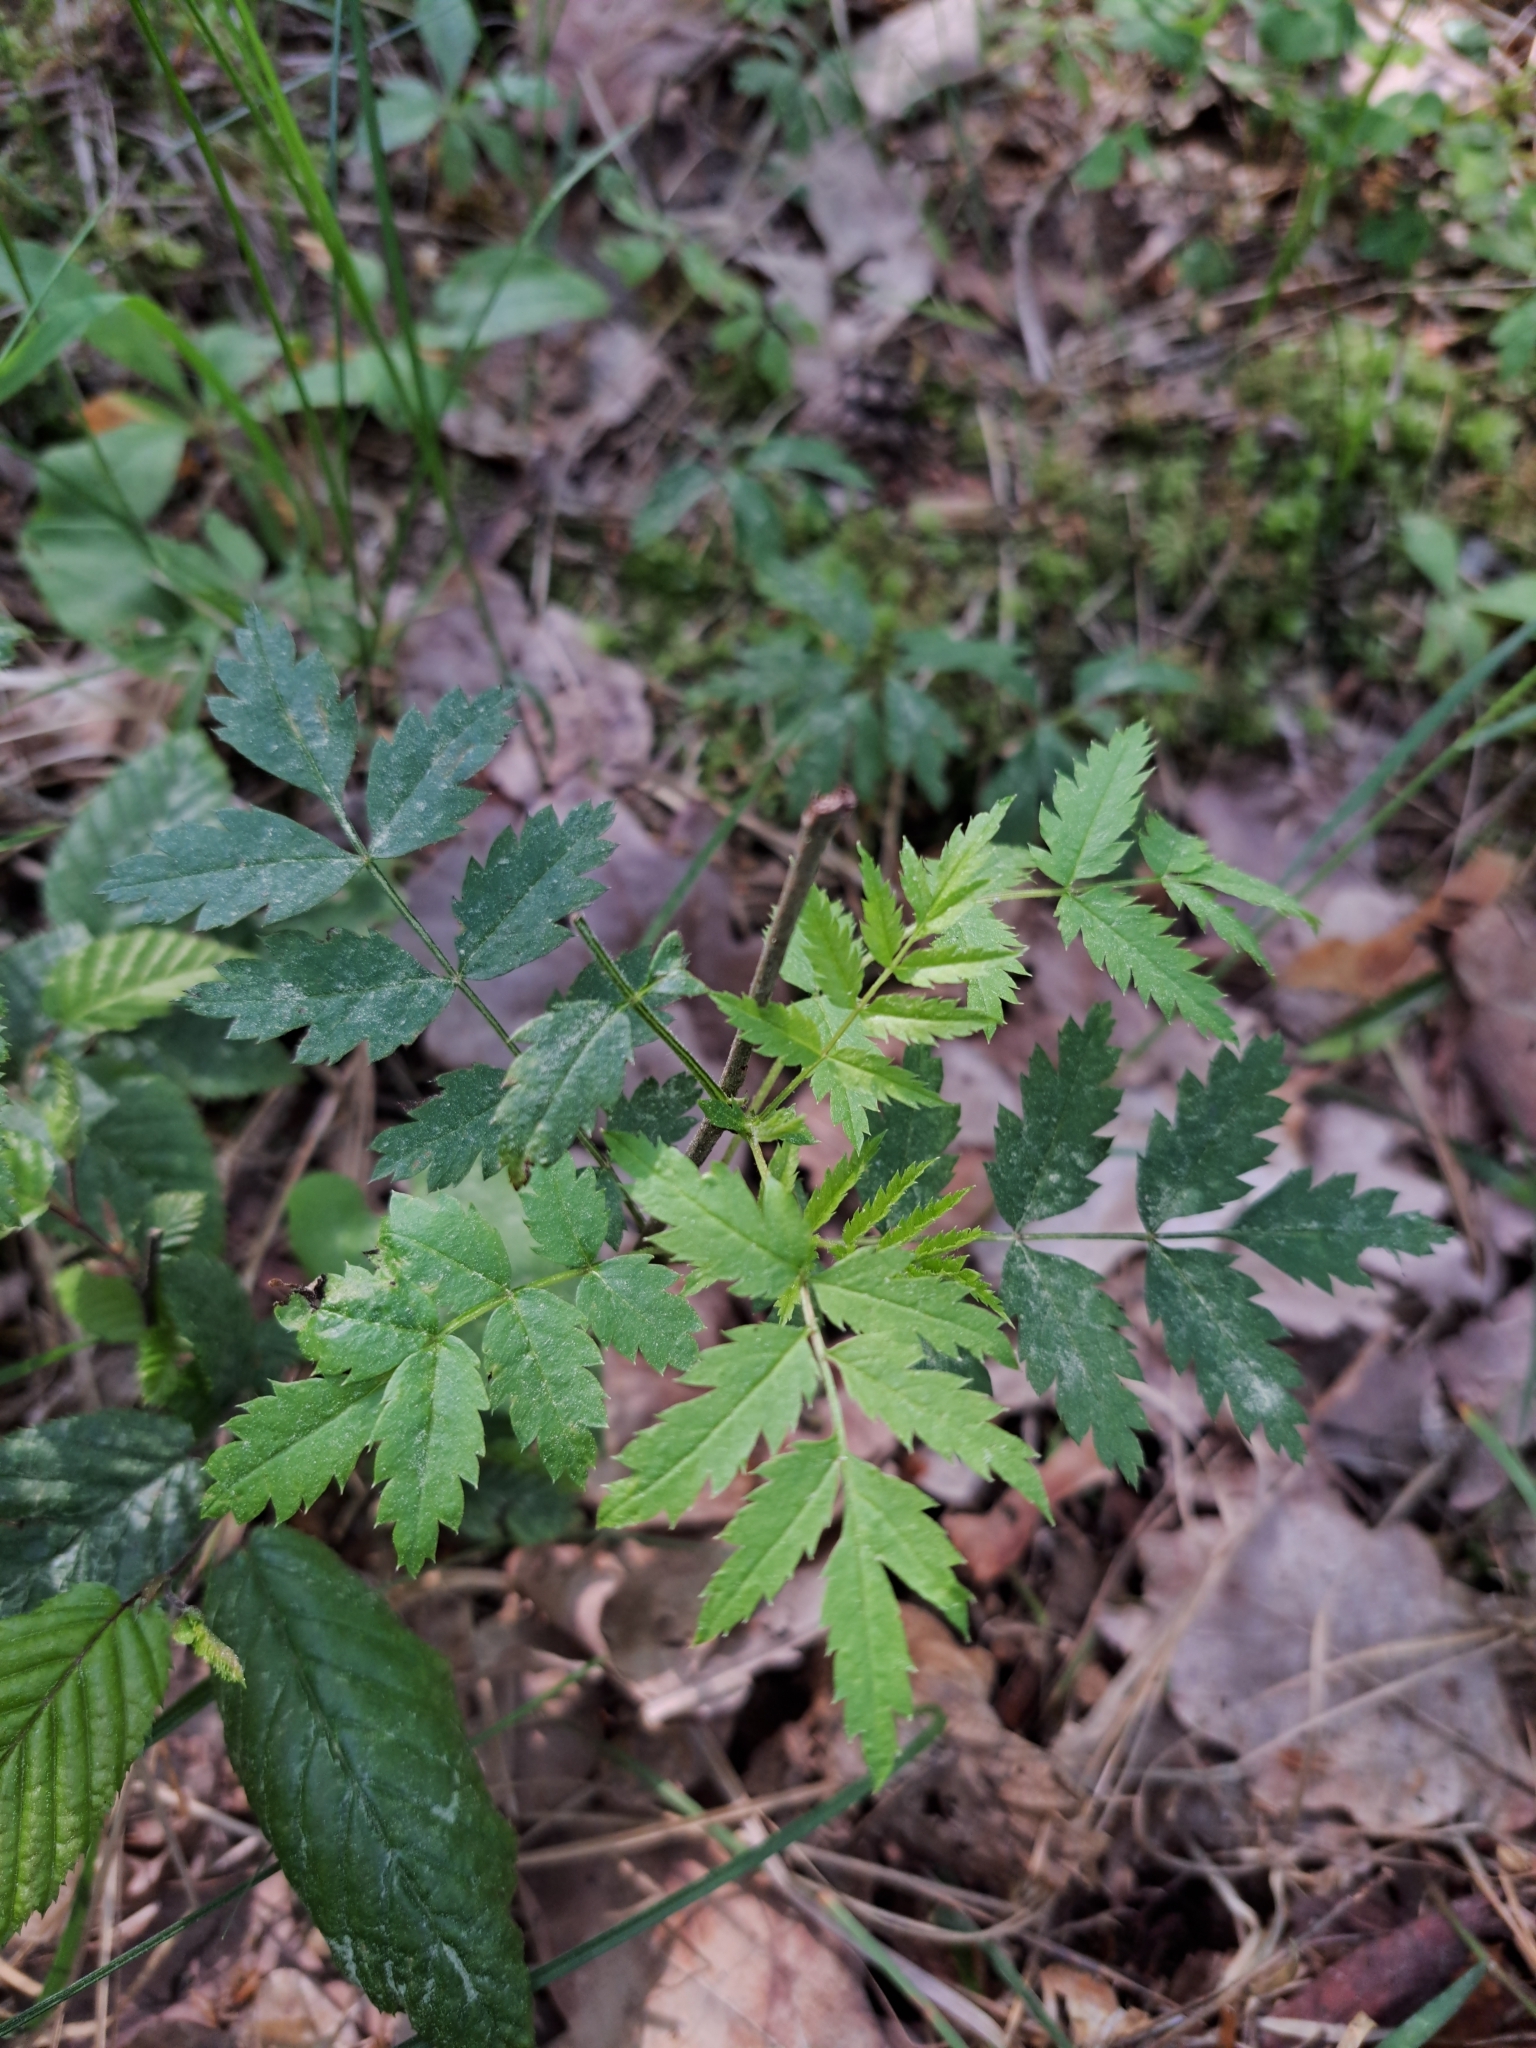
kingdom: Plantae
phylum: Tracheophyta
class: Magnoliopsida
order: Rosales
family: Rosaceae
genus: Sorbus
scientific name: Sorbus aucuparia
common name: Rowan
